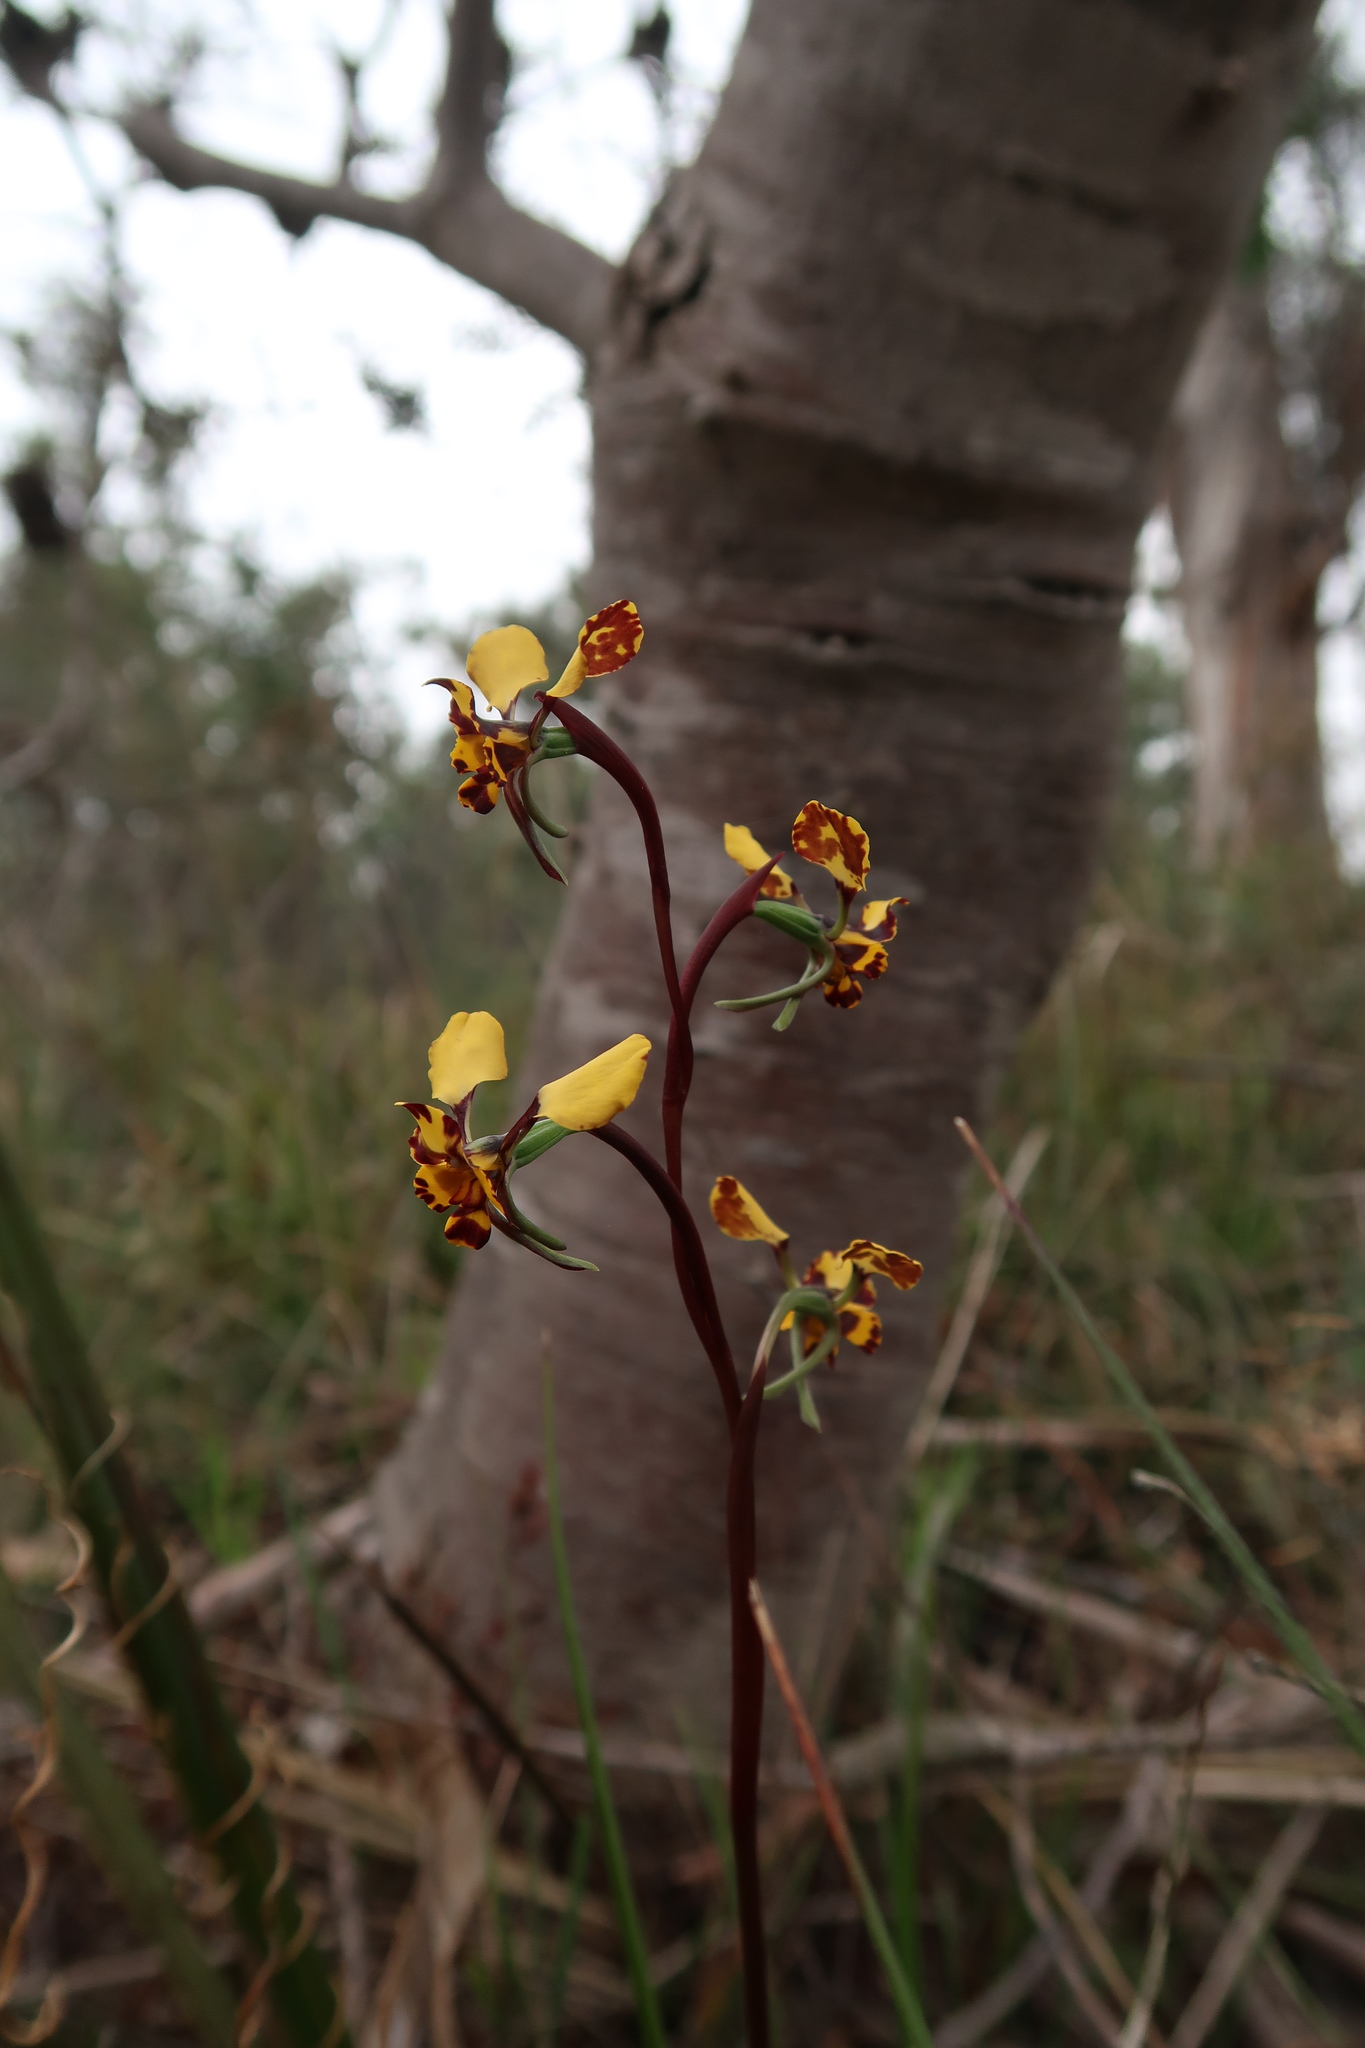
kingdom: Plantae
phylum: Tracheophyta
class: Liliopsida
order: Asparagales
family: Orchidaceae
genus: Diuris
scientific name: Diuris pardina
